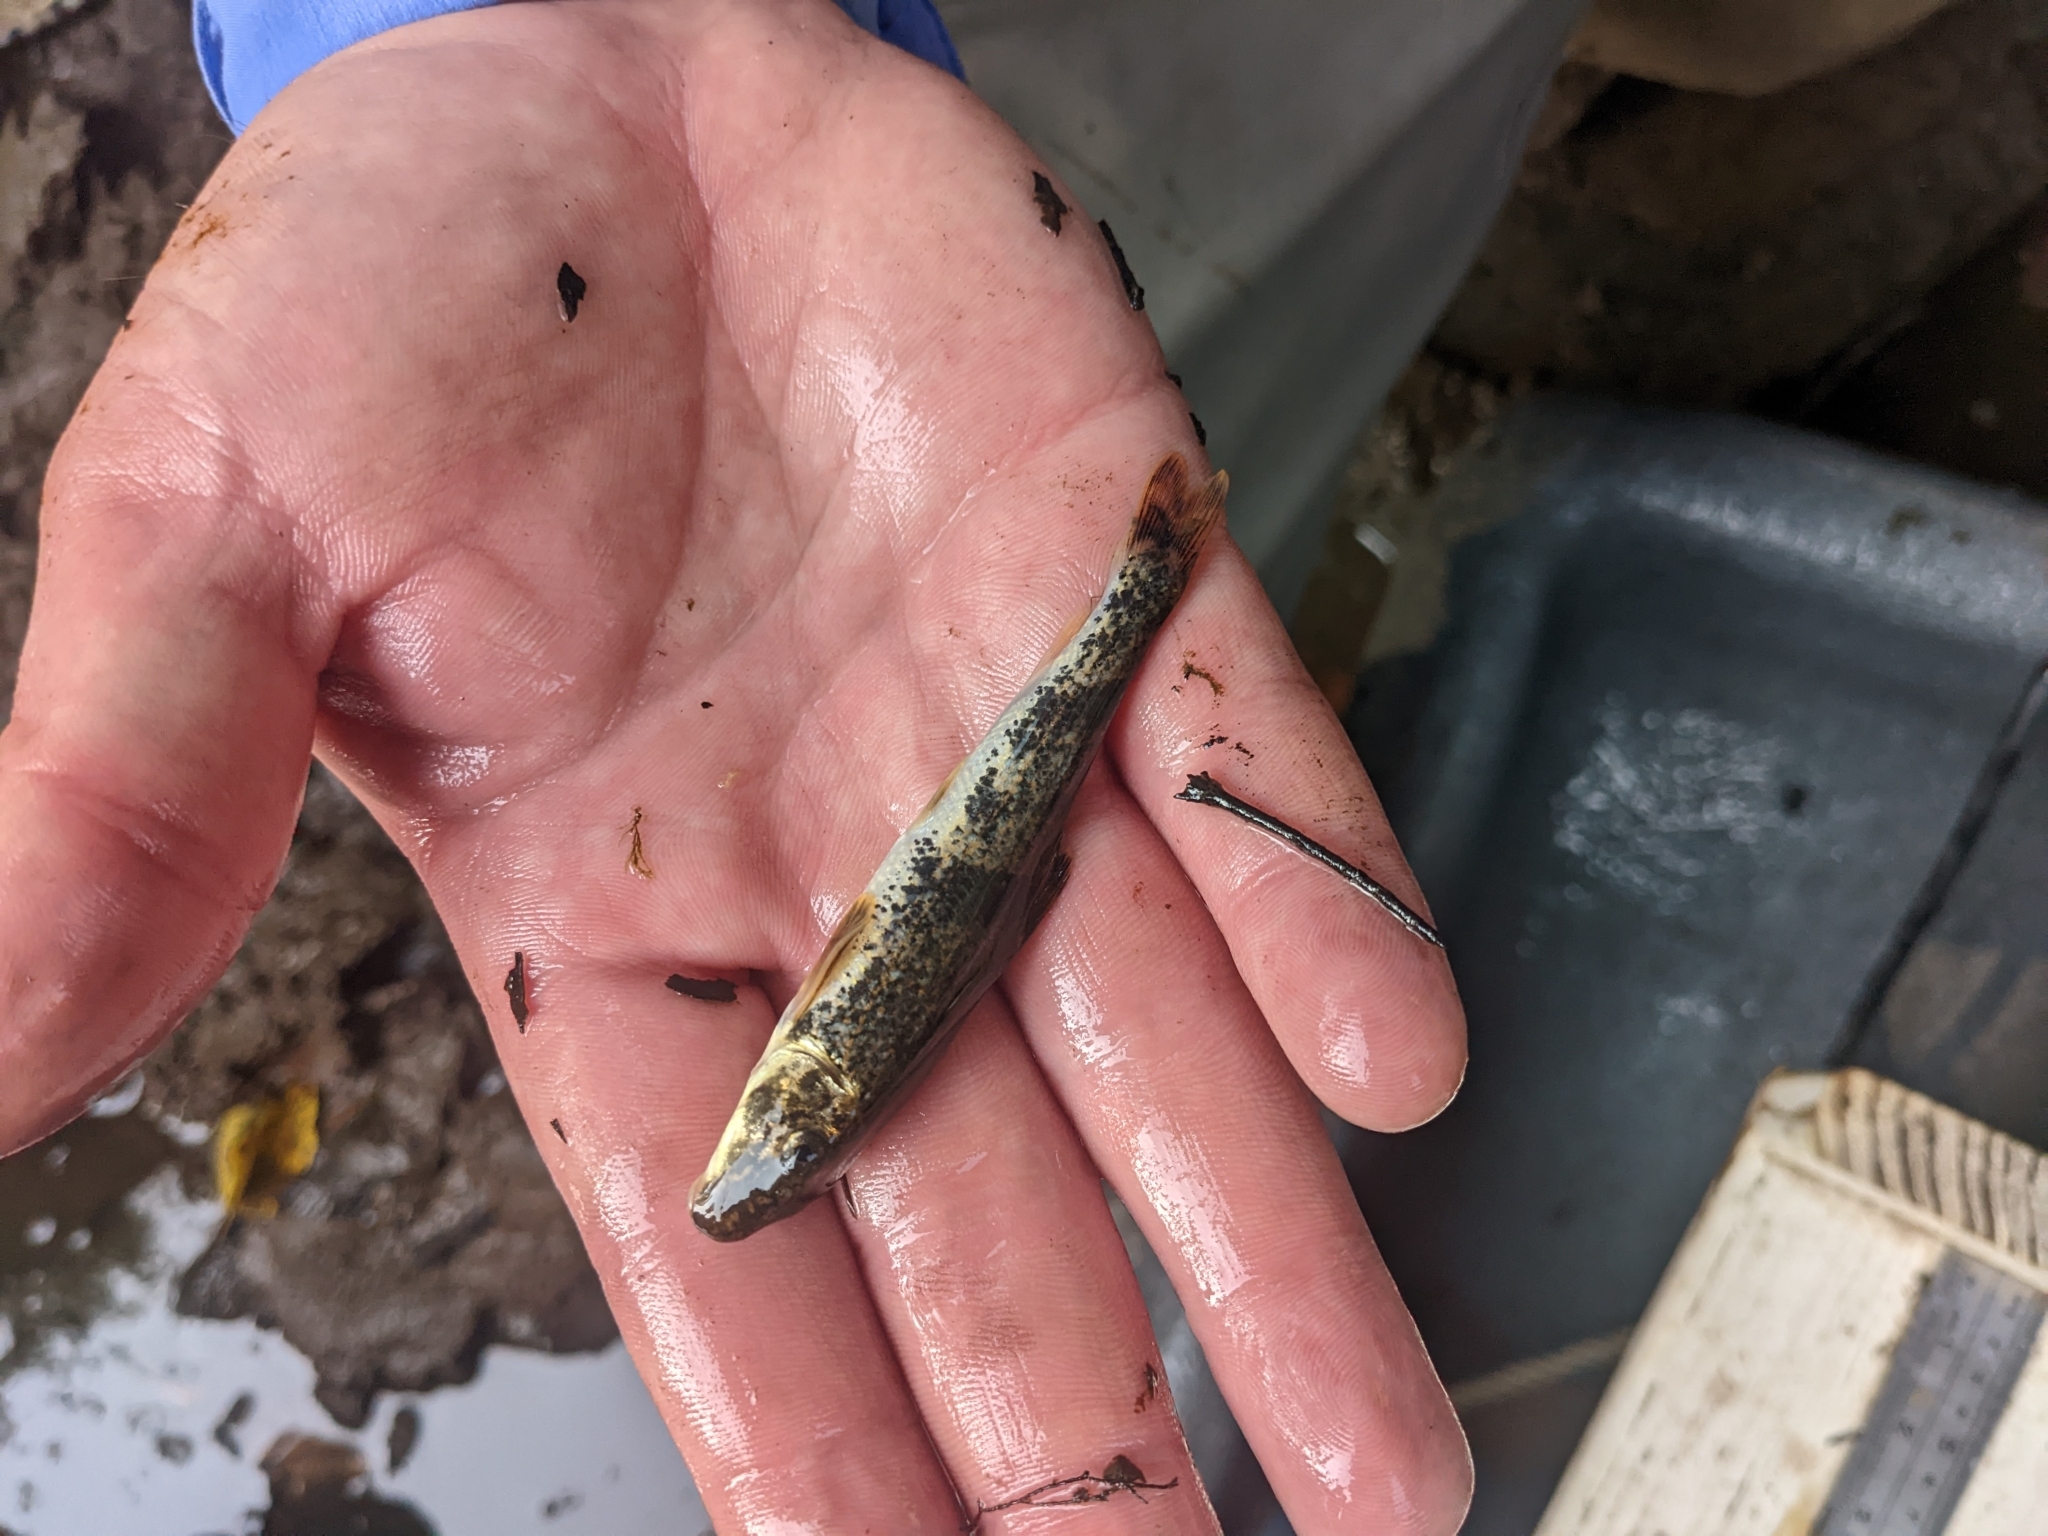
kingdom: Animalia
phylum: Chordata
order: Cypriniformes
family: Catostomidae
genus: Hypentelium
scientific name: Hypentelium nigricans
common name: Northern hog sucker
